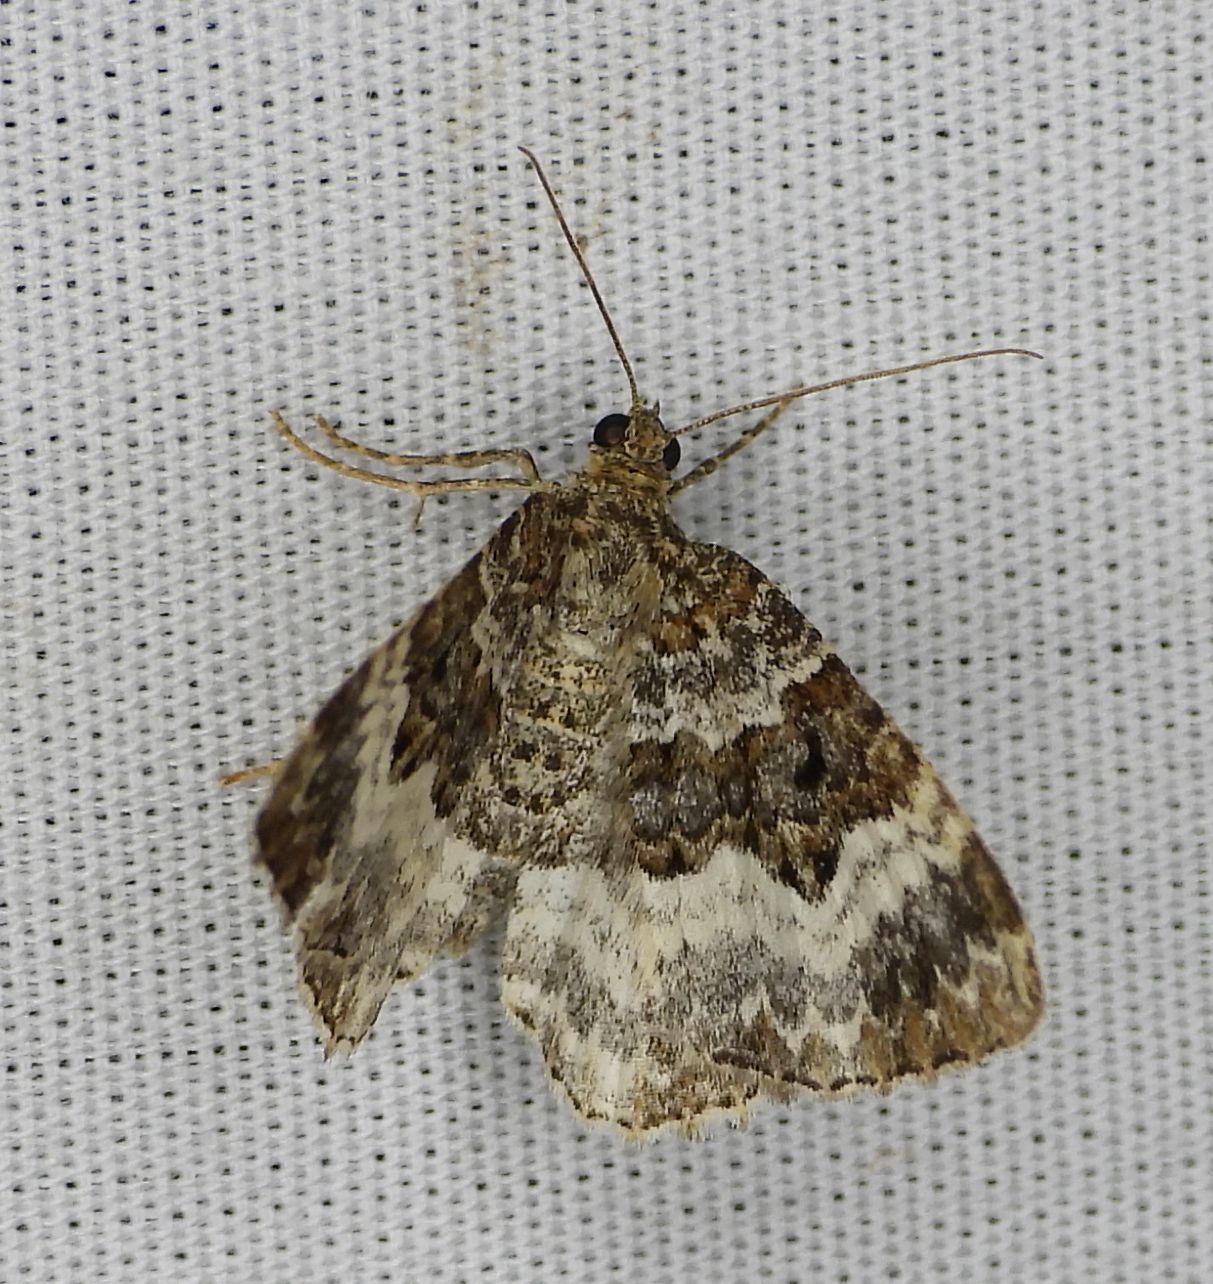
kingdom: Animalia
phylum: Arthropoda
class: Insecta
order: Lepidoptera
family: Geometridae
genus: Epirrhoe
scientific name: Epirrhoe alternata
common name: Common carpet
